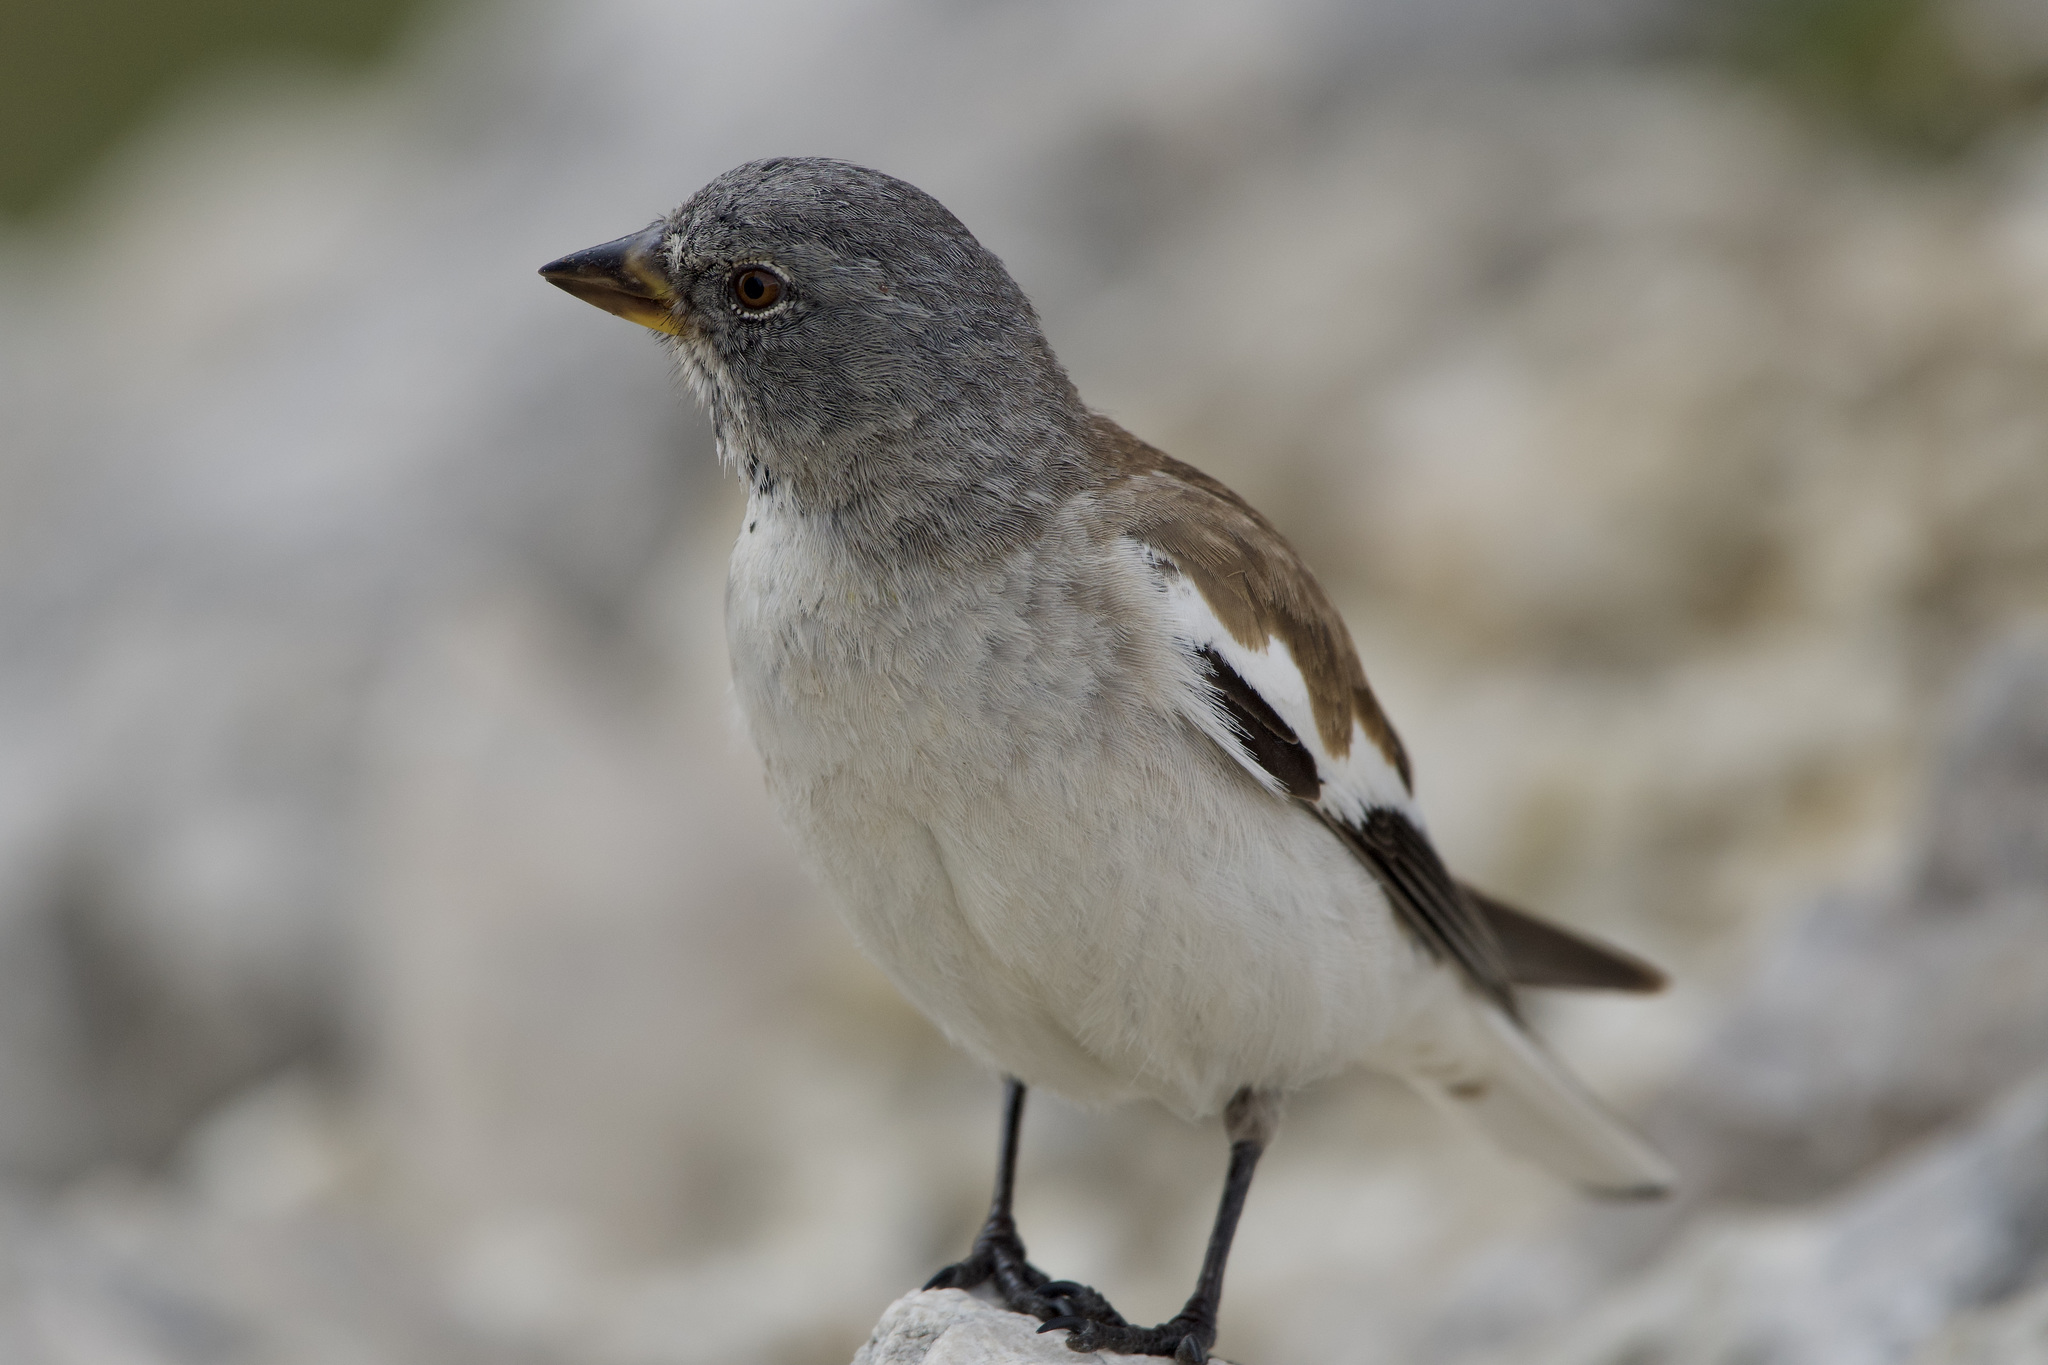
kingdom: Animalia
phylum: Chordata
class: Aves
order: Passeriformes
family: Passeridae
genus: Montifringilla
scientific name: Montifringilla nivalis
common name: White-winged snowfinch
